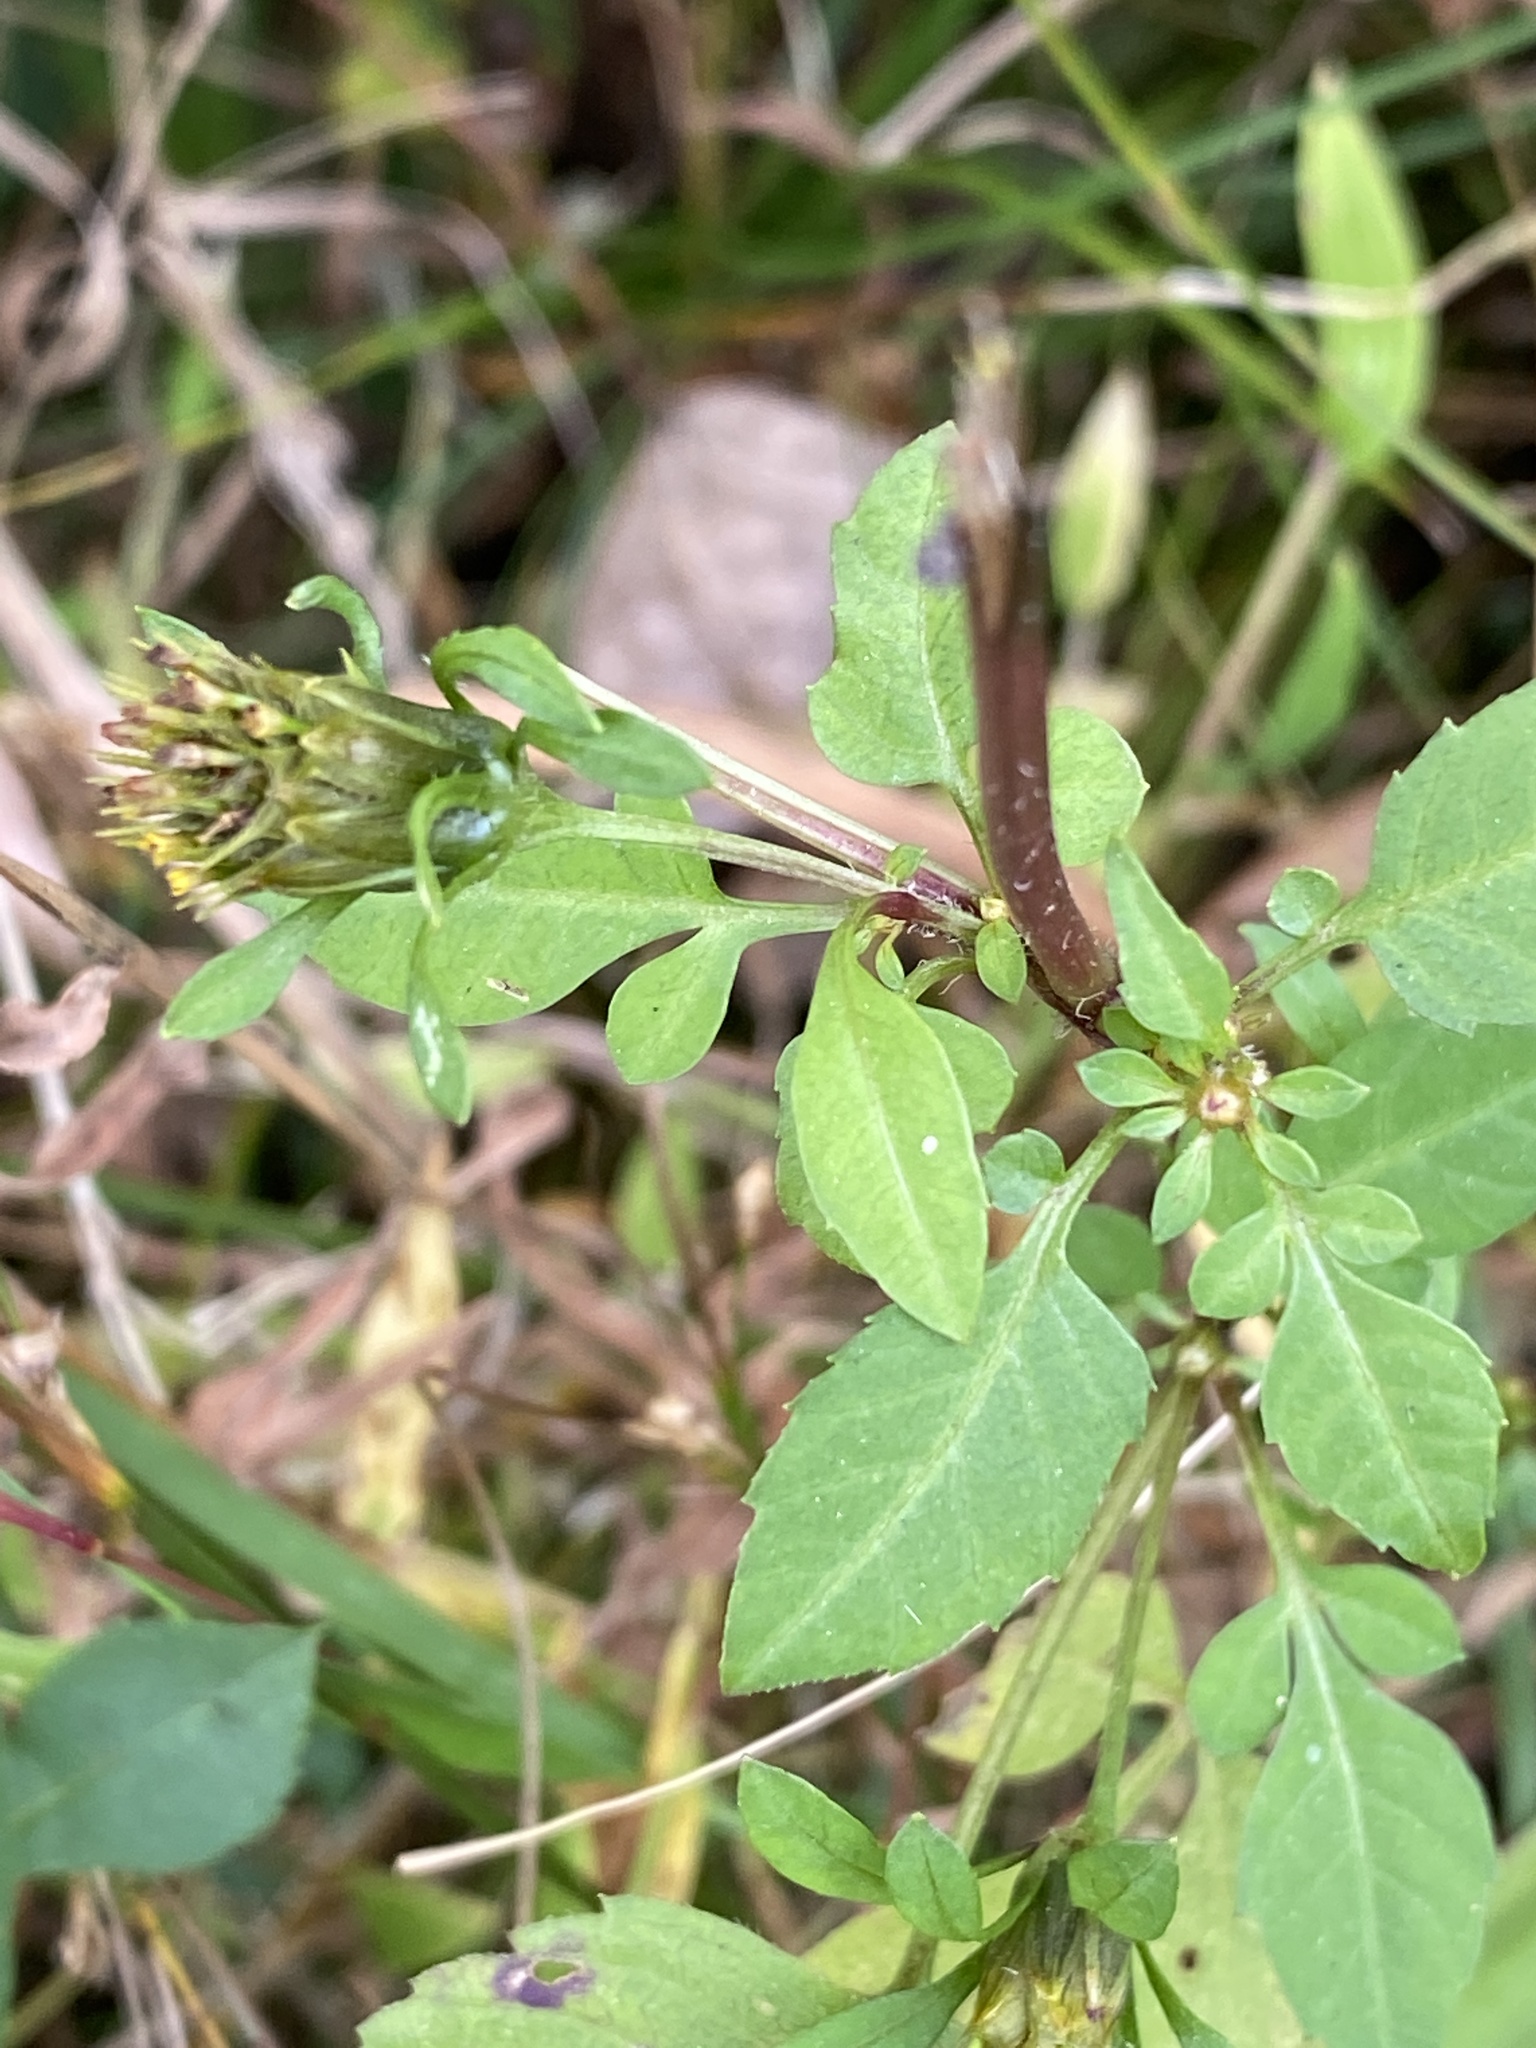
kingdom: Plantae
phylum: Tracheophyta
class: Magnoliopsida
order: Asterales
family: Asteraceae
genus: Bidens
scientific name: Bidens frondosa
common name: Beggarticks
